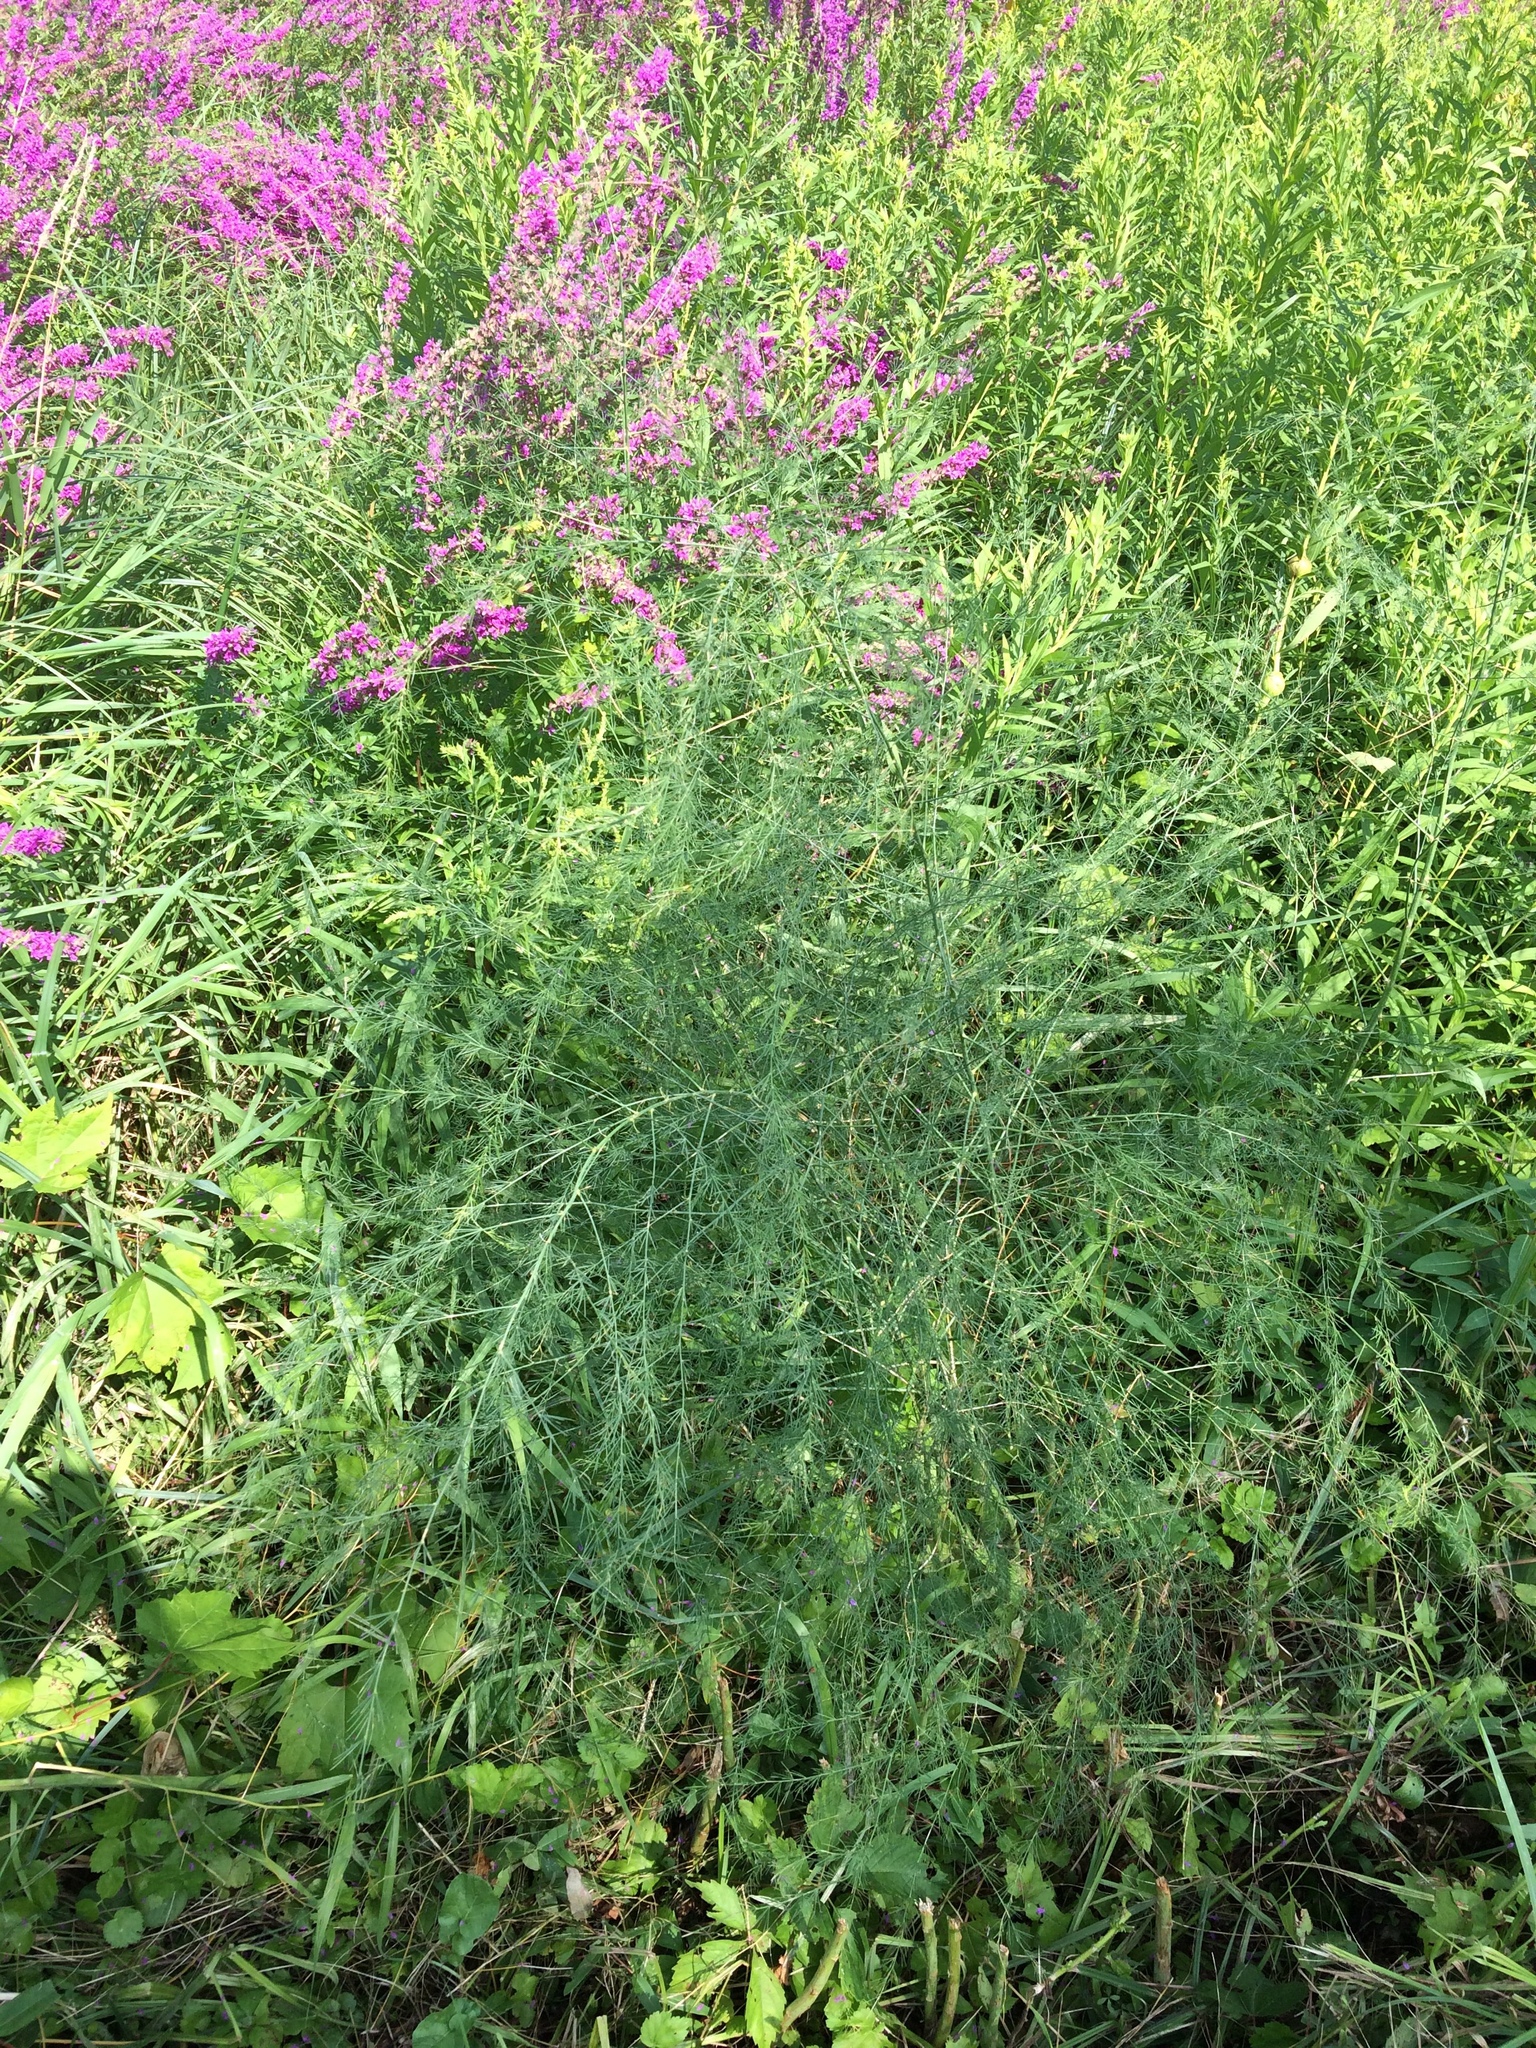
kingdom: Plantae
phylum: Tracheophyta
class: Liliopsida
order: Asparagales
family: Asparagaceae
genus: Asparagus
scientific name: Asparagus officinalis
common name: Garden asparagus
